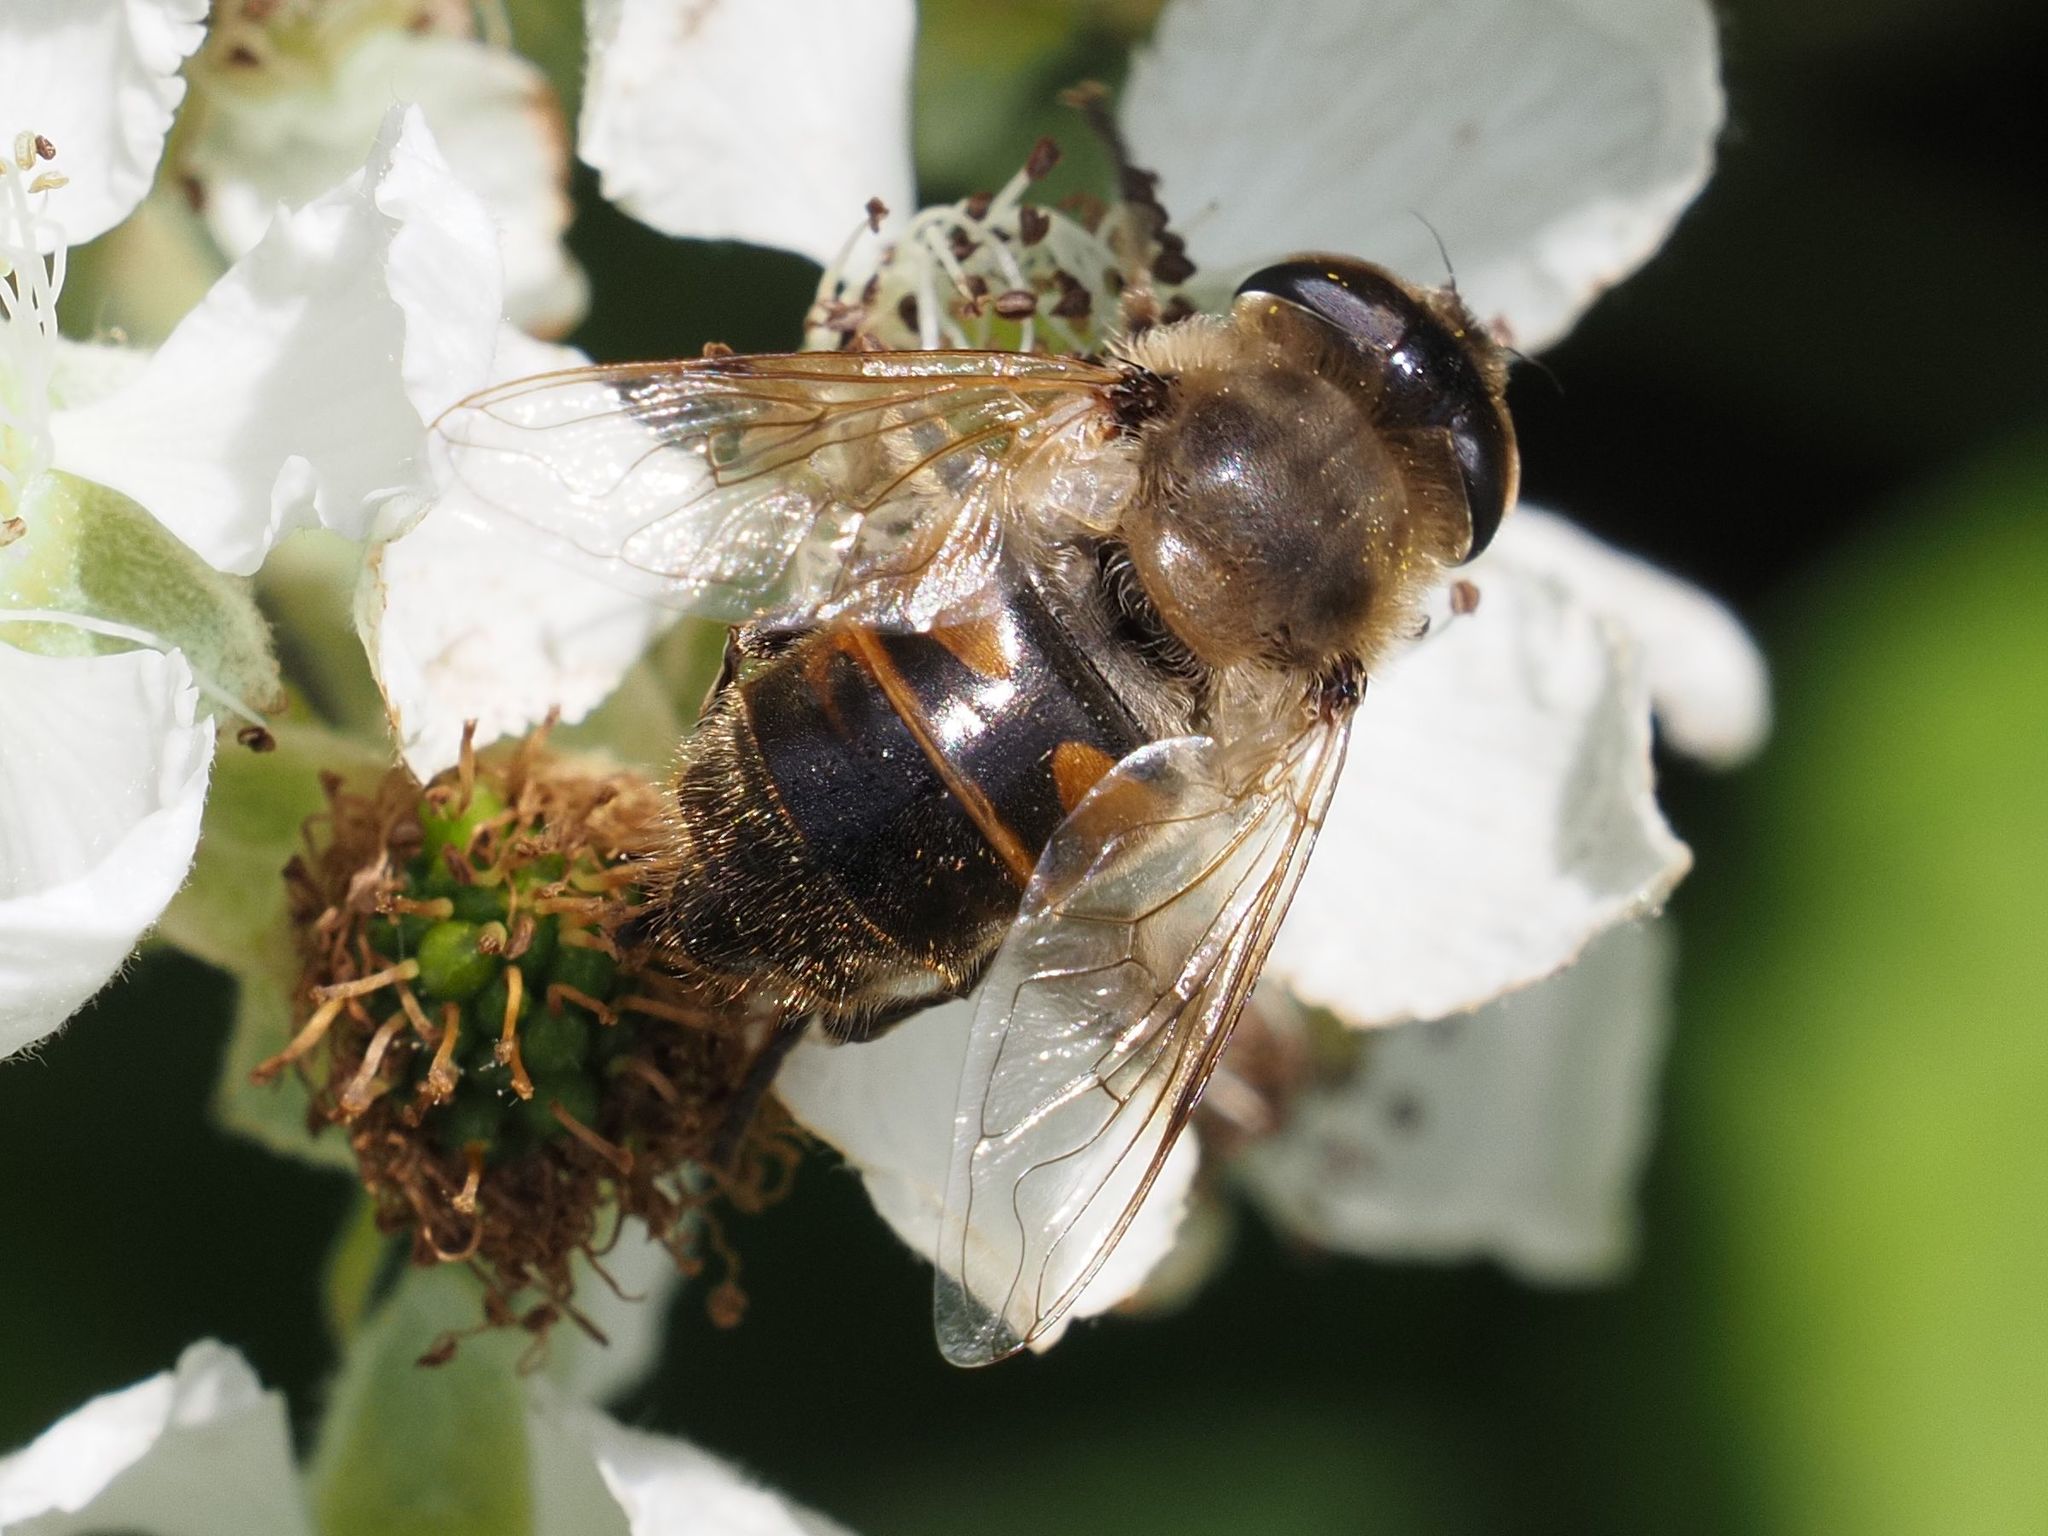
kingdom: Animalia
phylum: Arthropoda
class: Insecta
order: Diptera
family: Syrphidae
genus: Eristalis
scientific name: Eristalis tenax
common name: Drone fly
